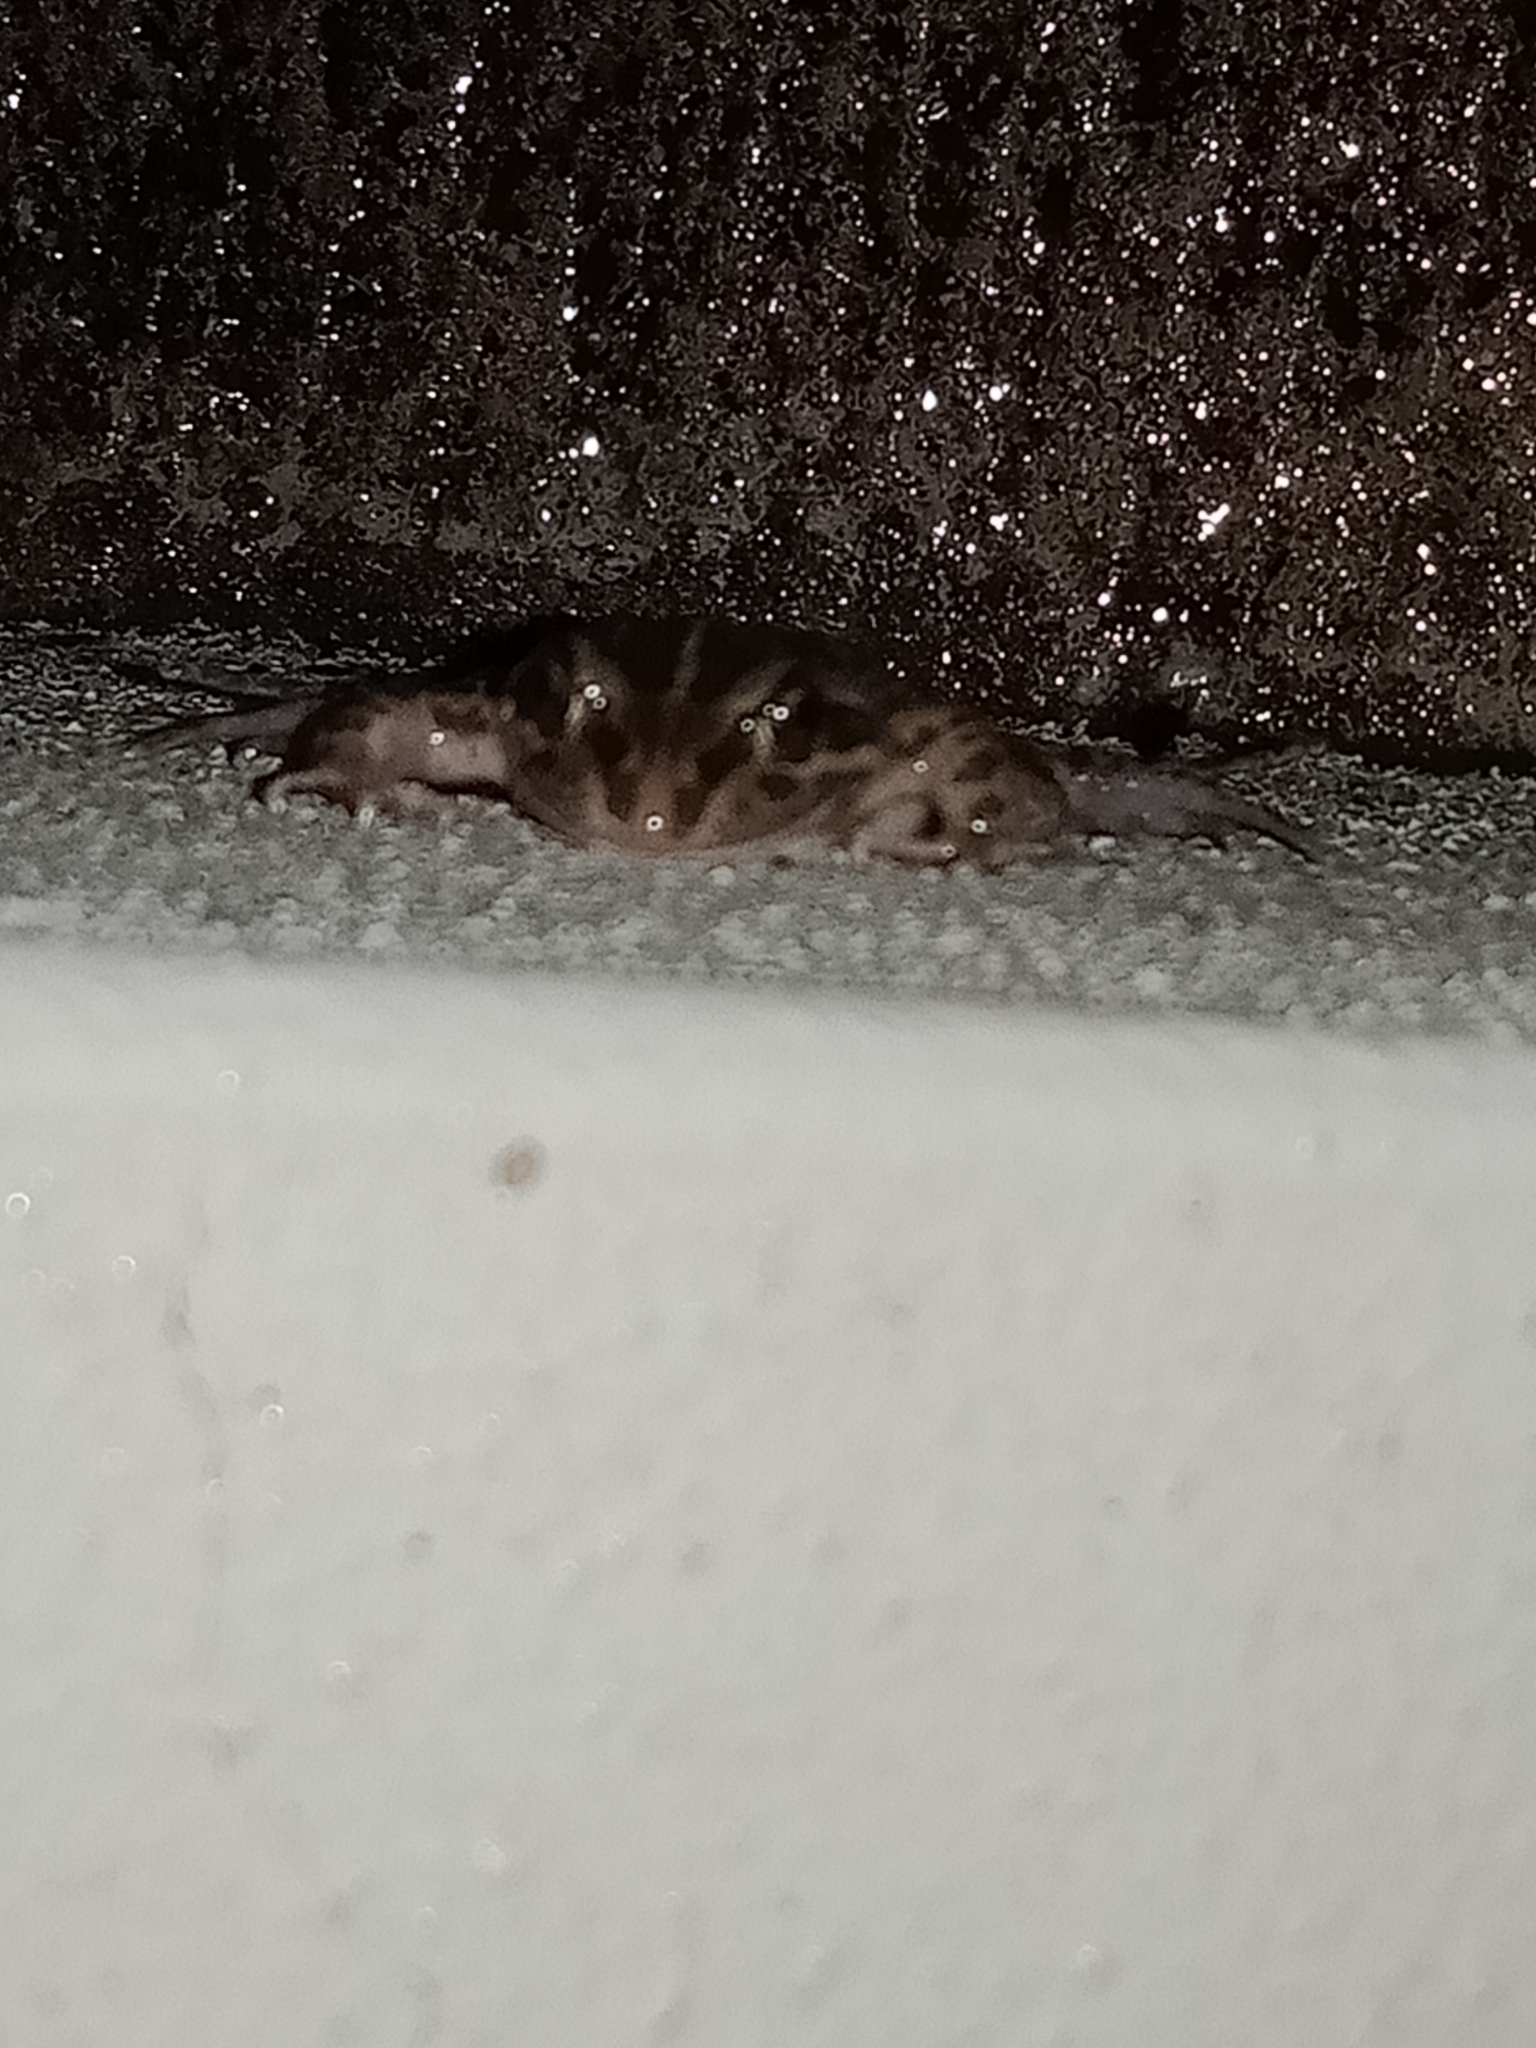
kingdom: Animalia
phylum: Chordata
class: Amphibia
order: Anura
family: Limnodynastidae
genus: Limnodynastes
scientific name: Limnodynastes tasmaniensis
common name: Spotted marsh frog
